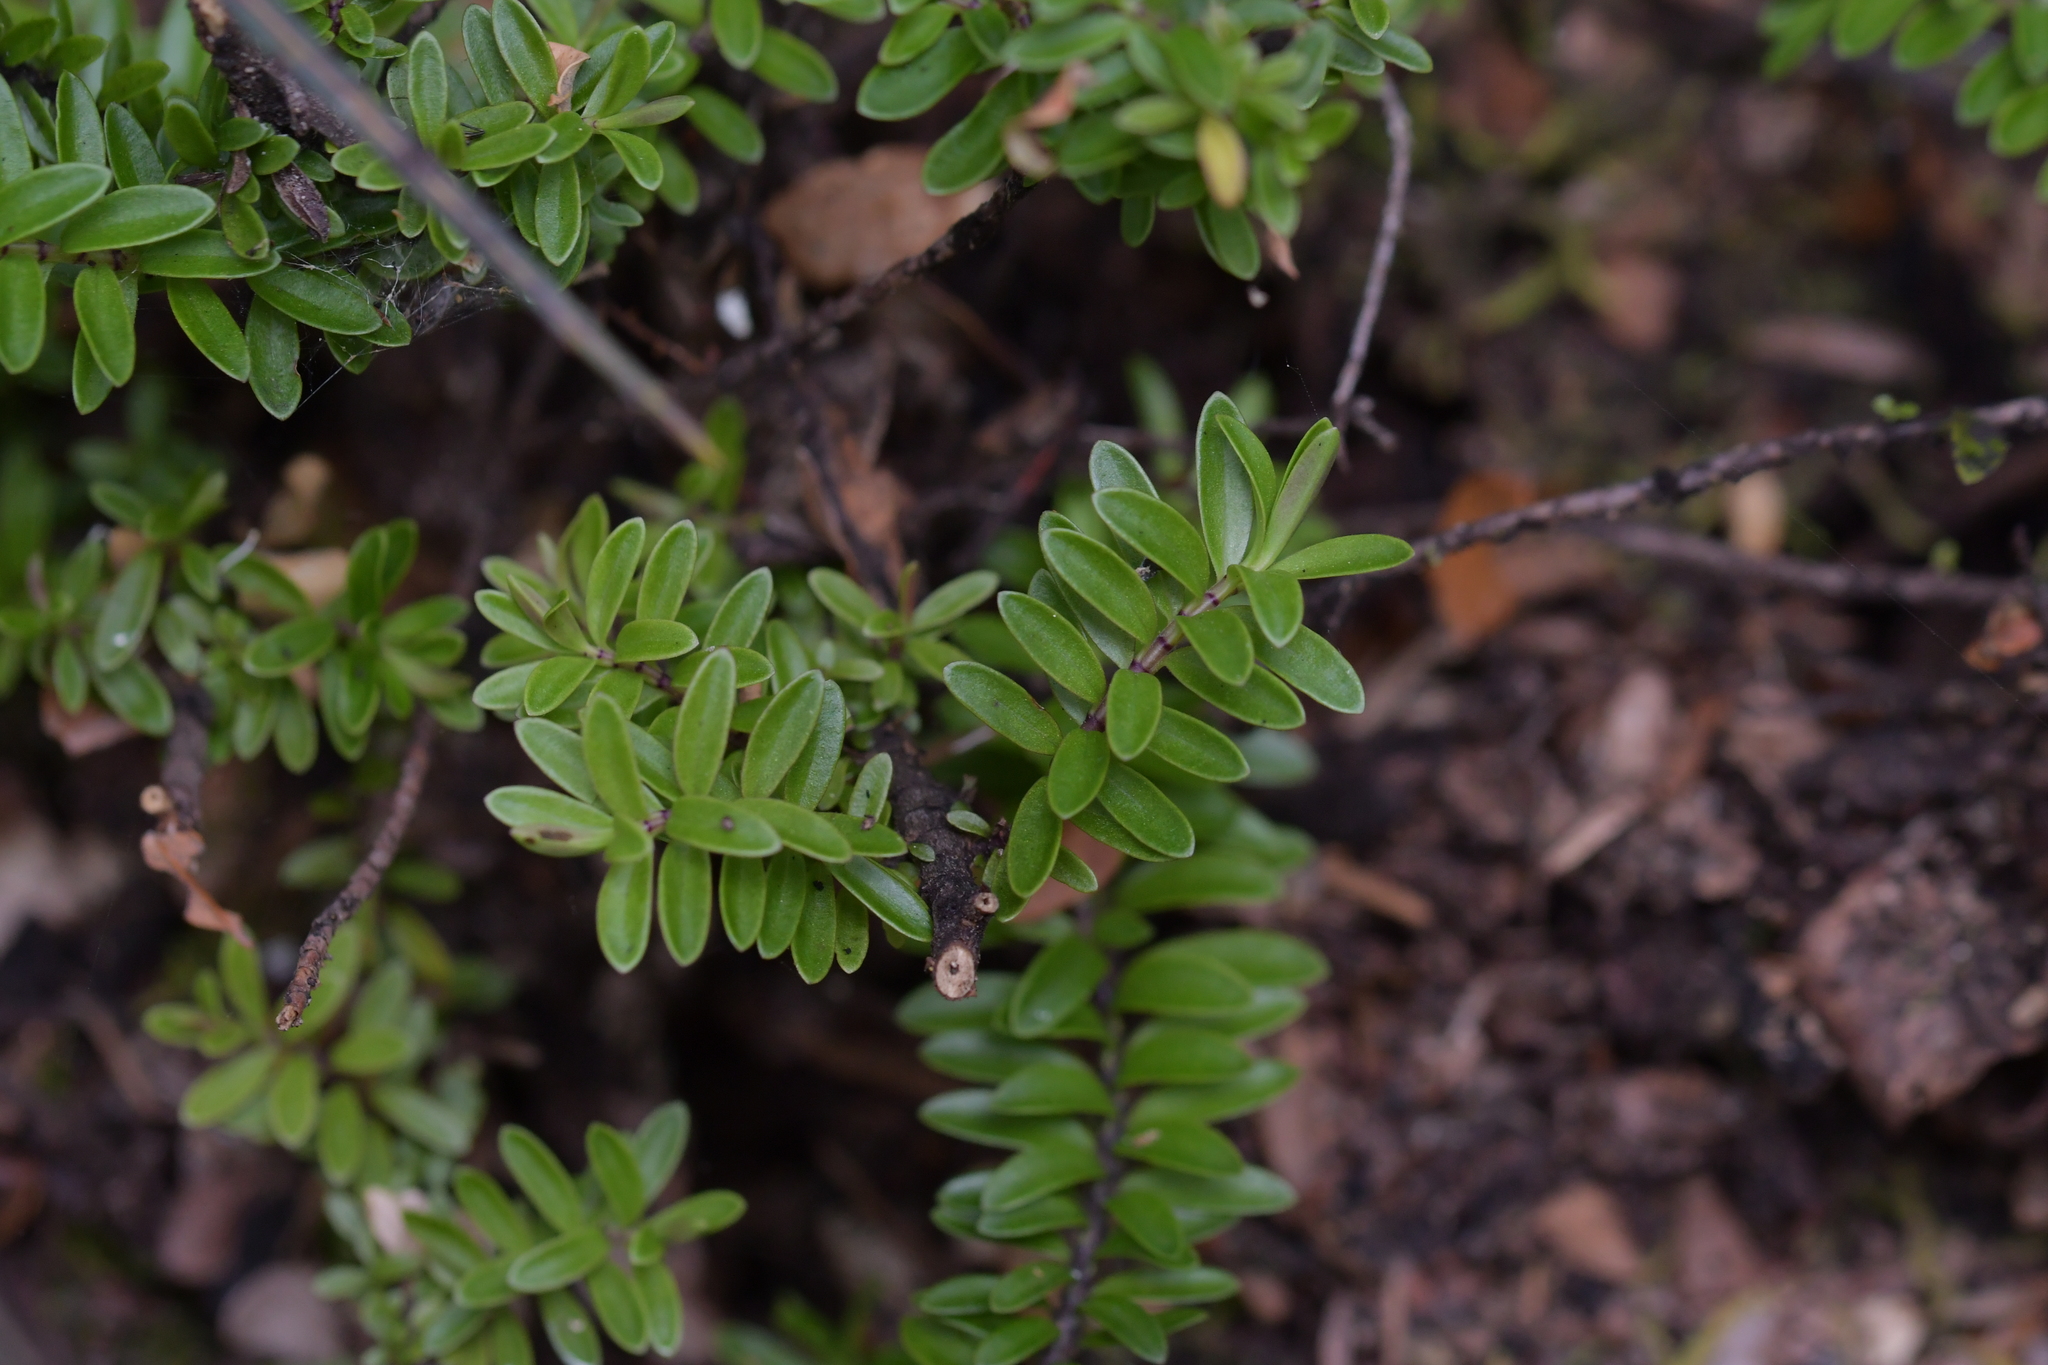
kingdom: Plantae
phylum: Tracheophyta
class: Magnoliopsida
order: Lamiales
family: Plantaginaceae
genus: Veronica
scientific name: Veronica vernicosa
